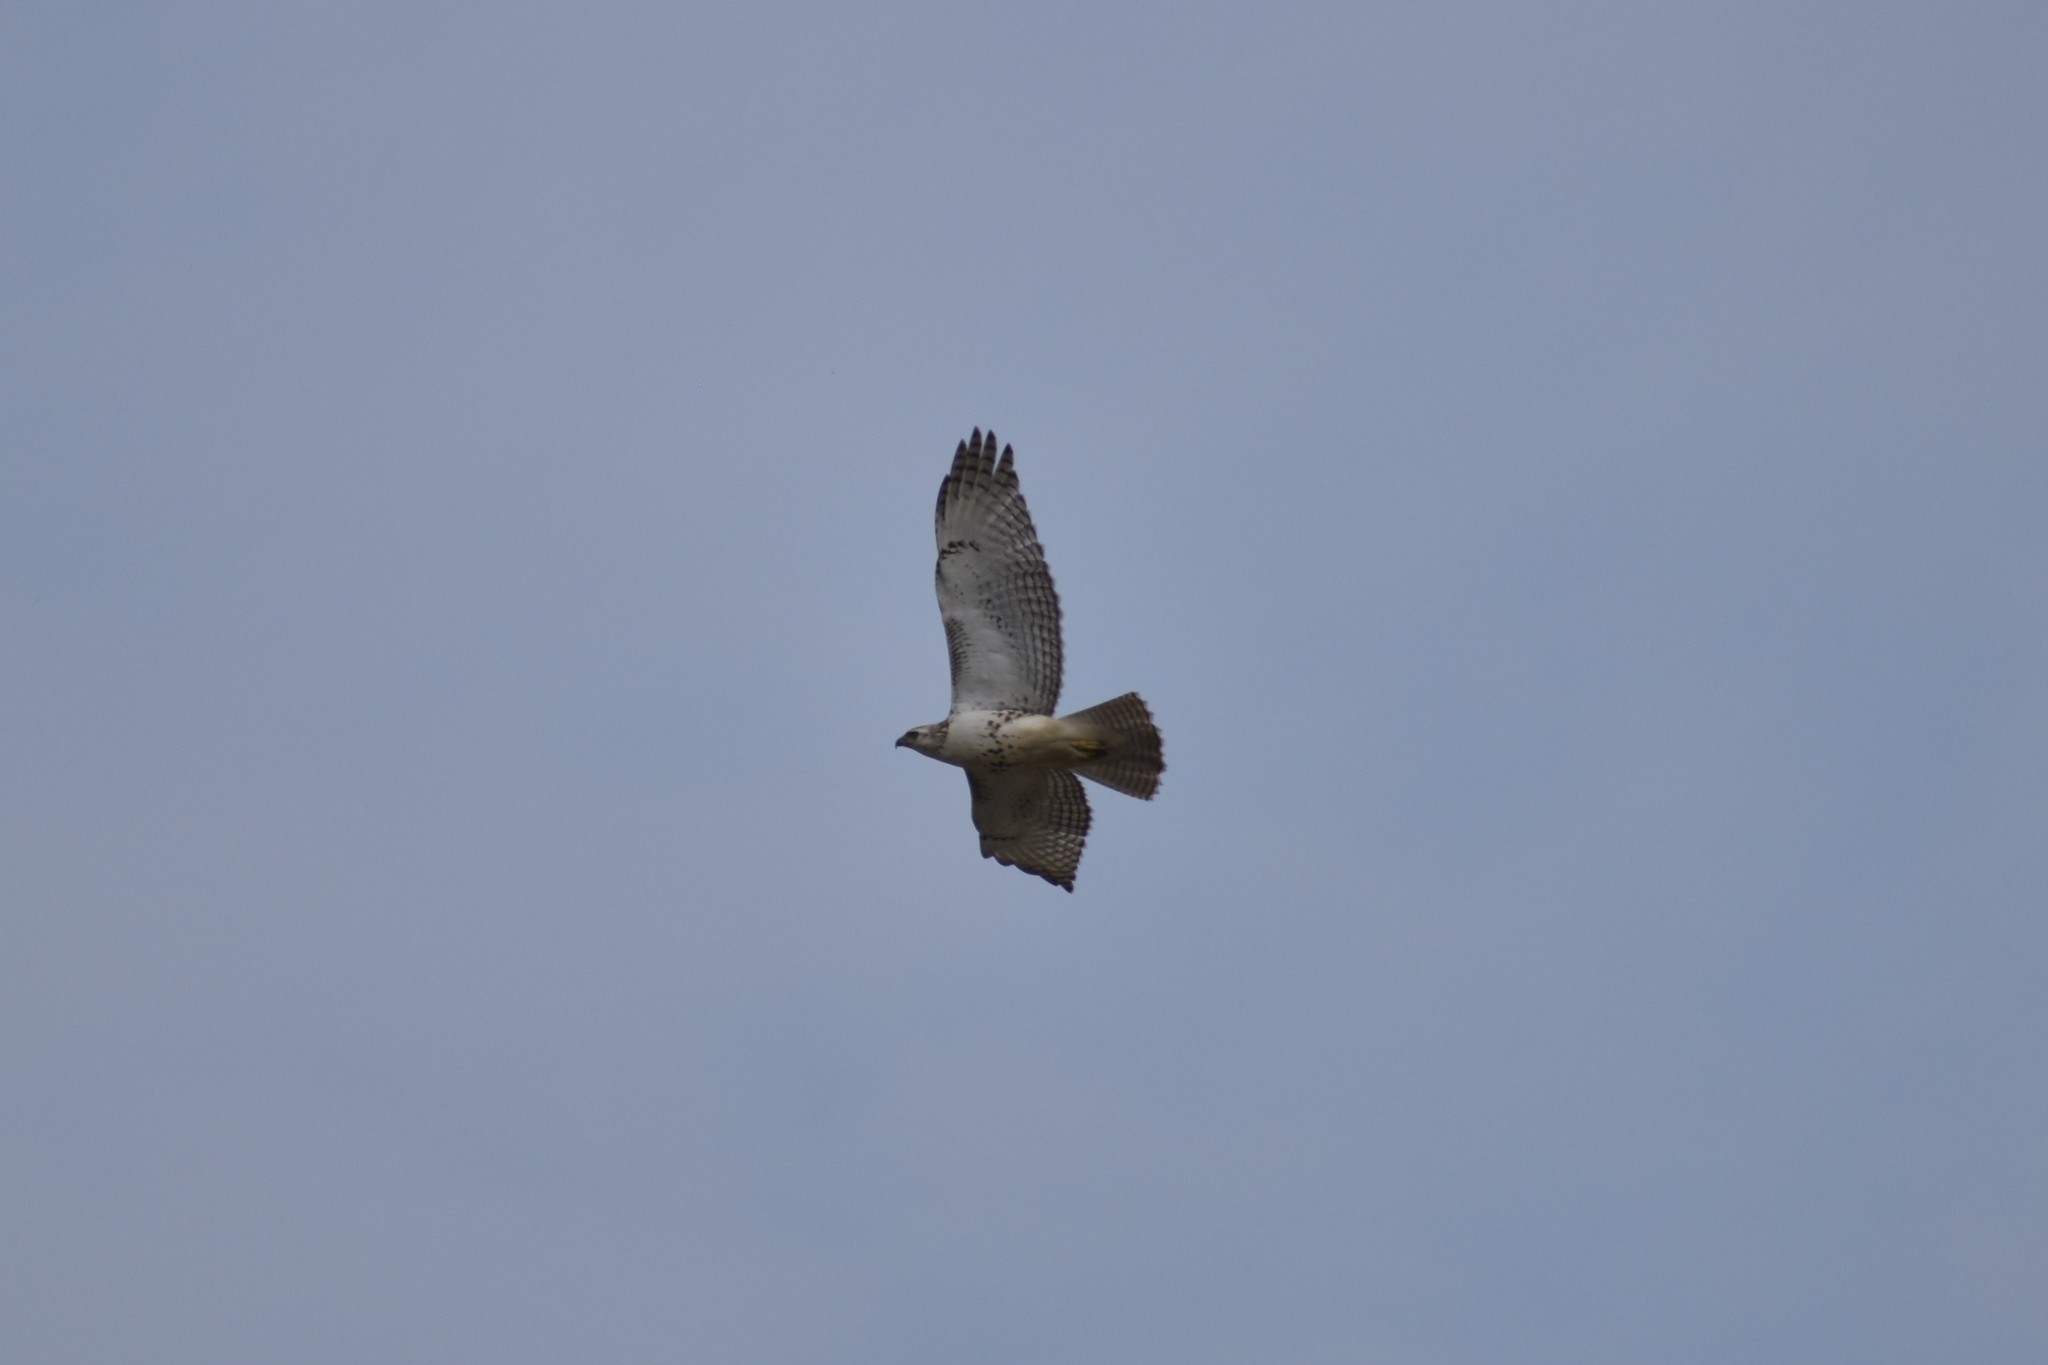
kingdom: Animalia
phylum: Chordata
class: Aves
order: Accipitriformes
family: Accipitridae
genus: Buteo
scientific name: Buteo jamaicensis
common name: Red-tailed hawk
